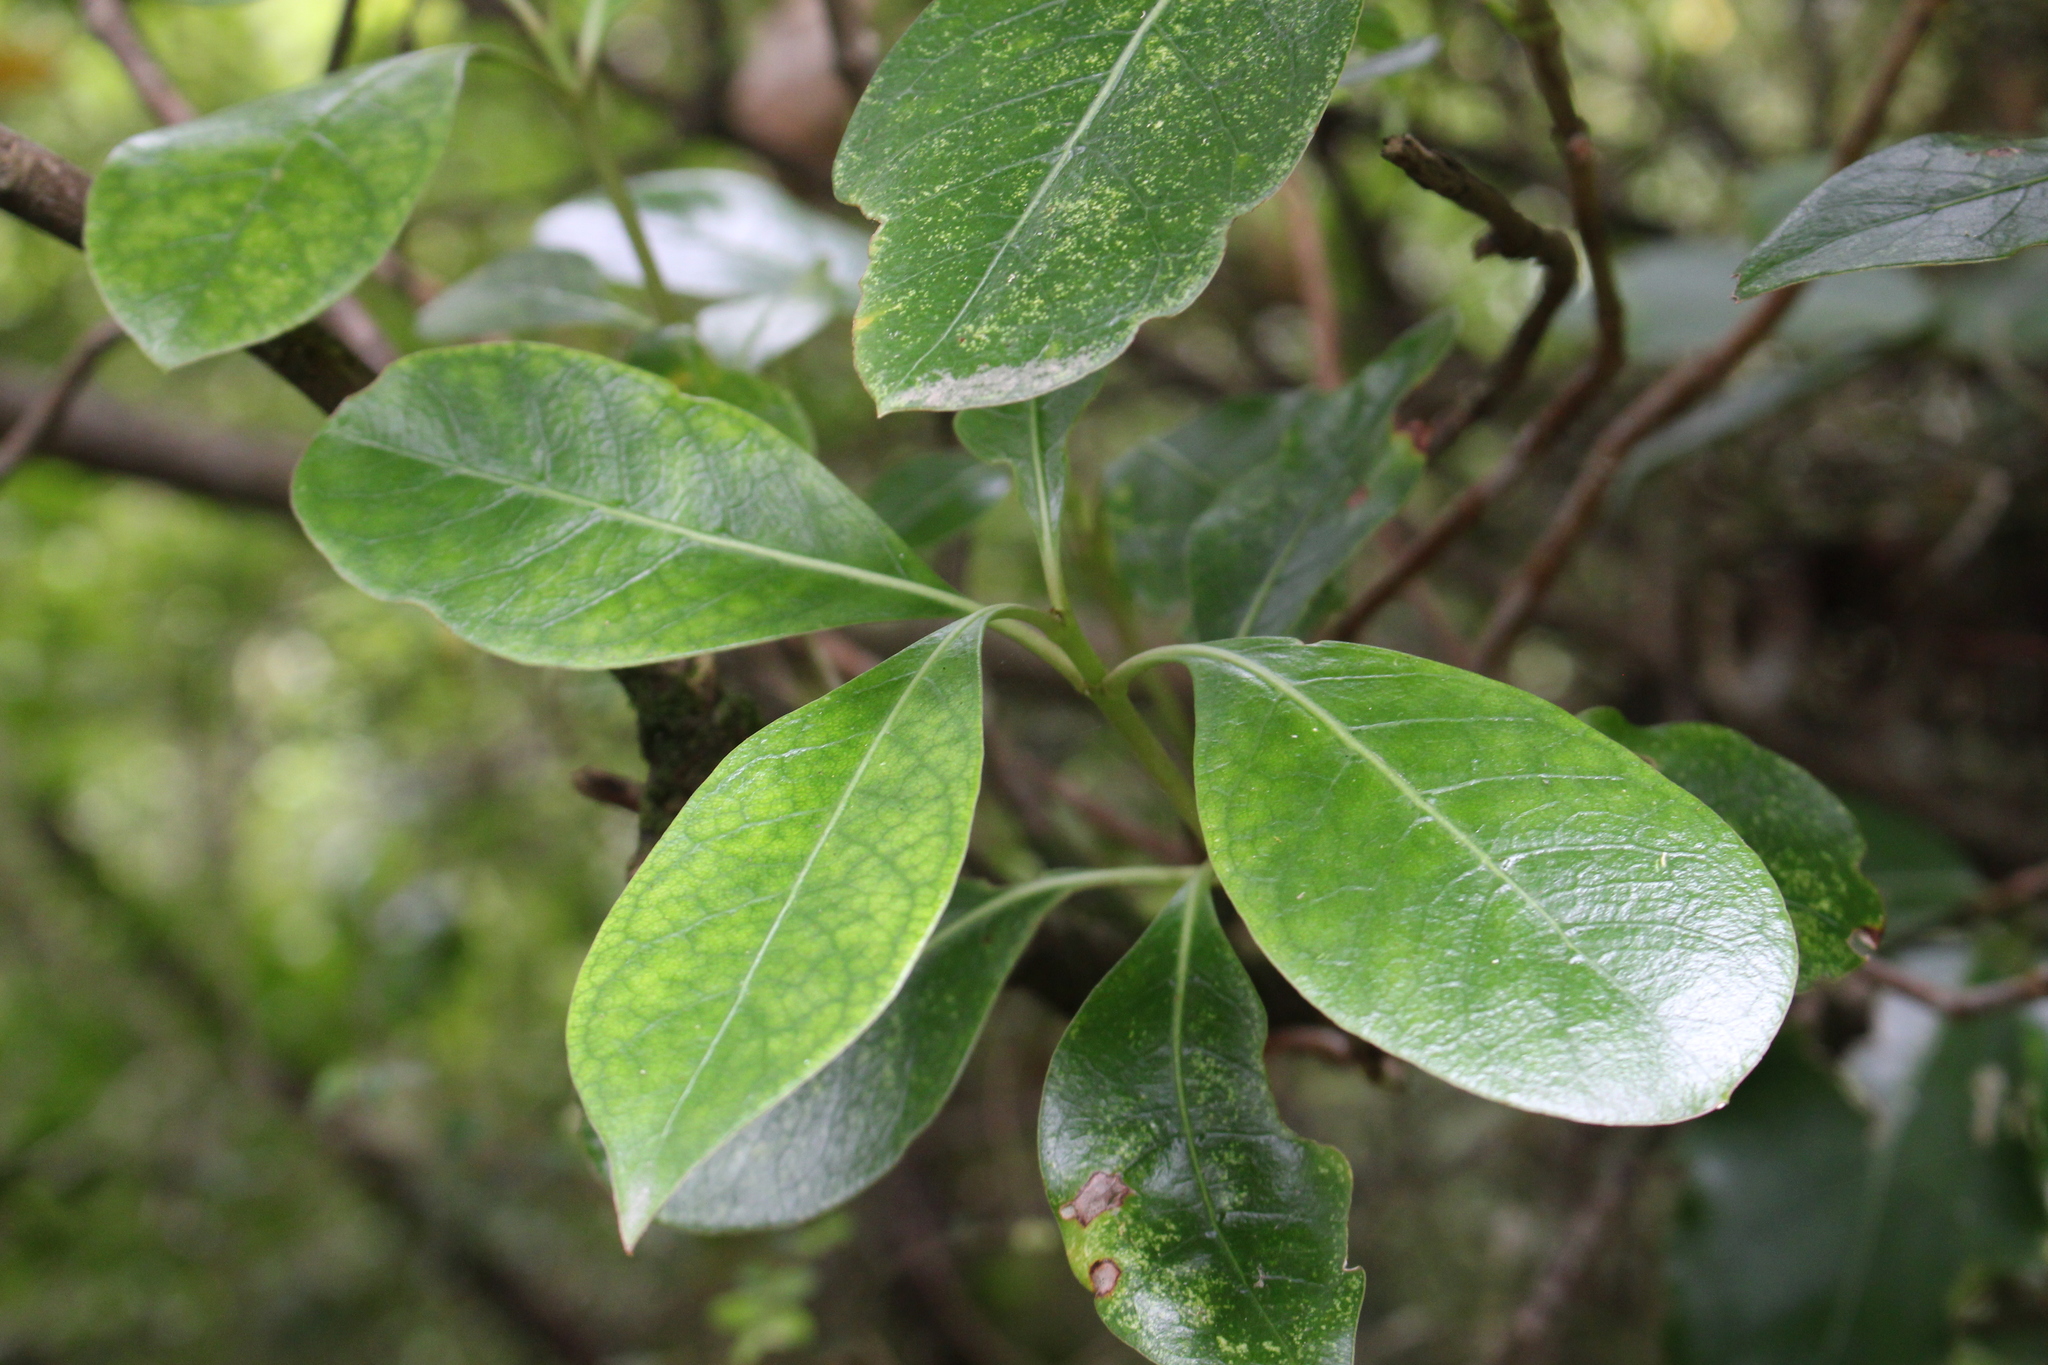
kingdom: Plantae
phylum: Tracheophyta
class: Magnoliopsida
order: Gentianales
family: Rubiaceae
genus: Coprosma
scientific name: Coprosma lucida
